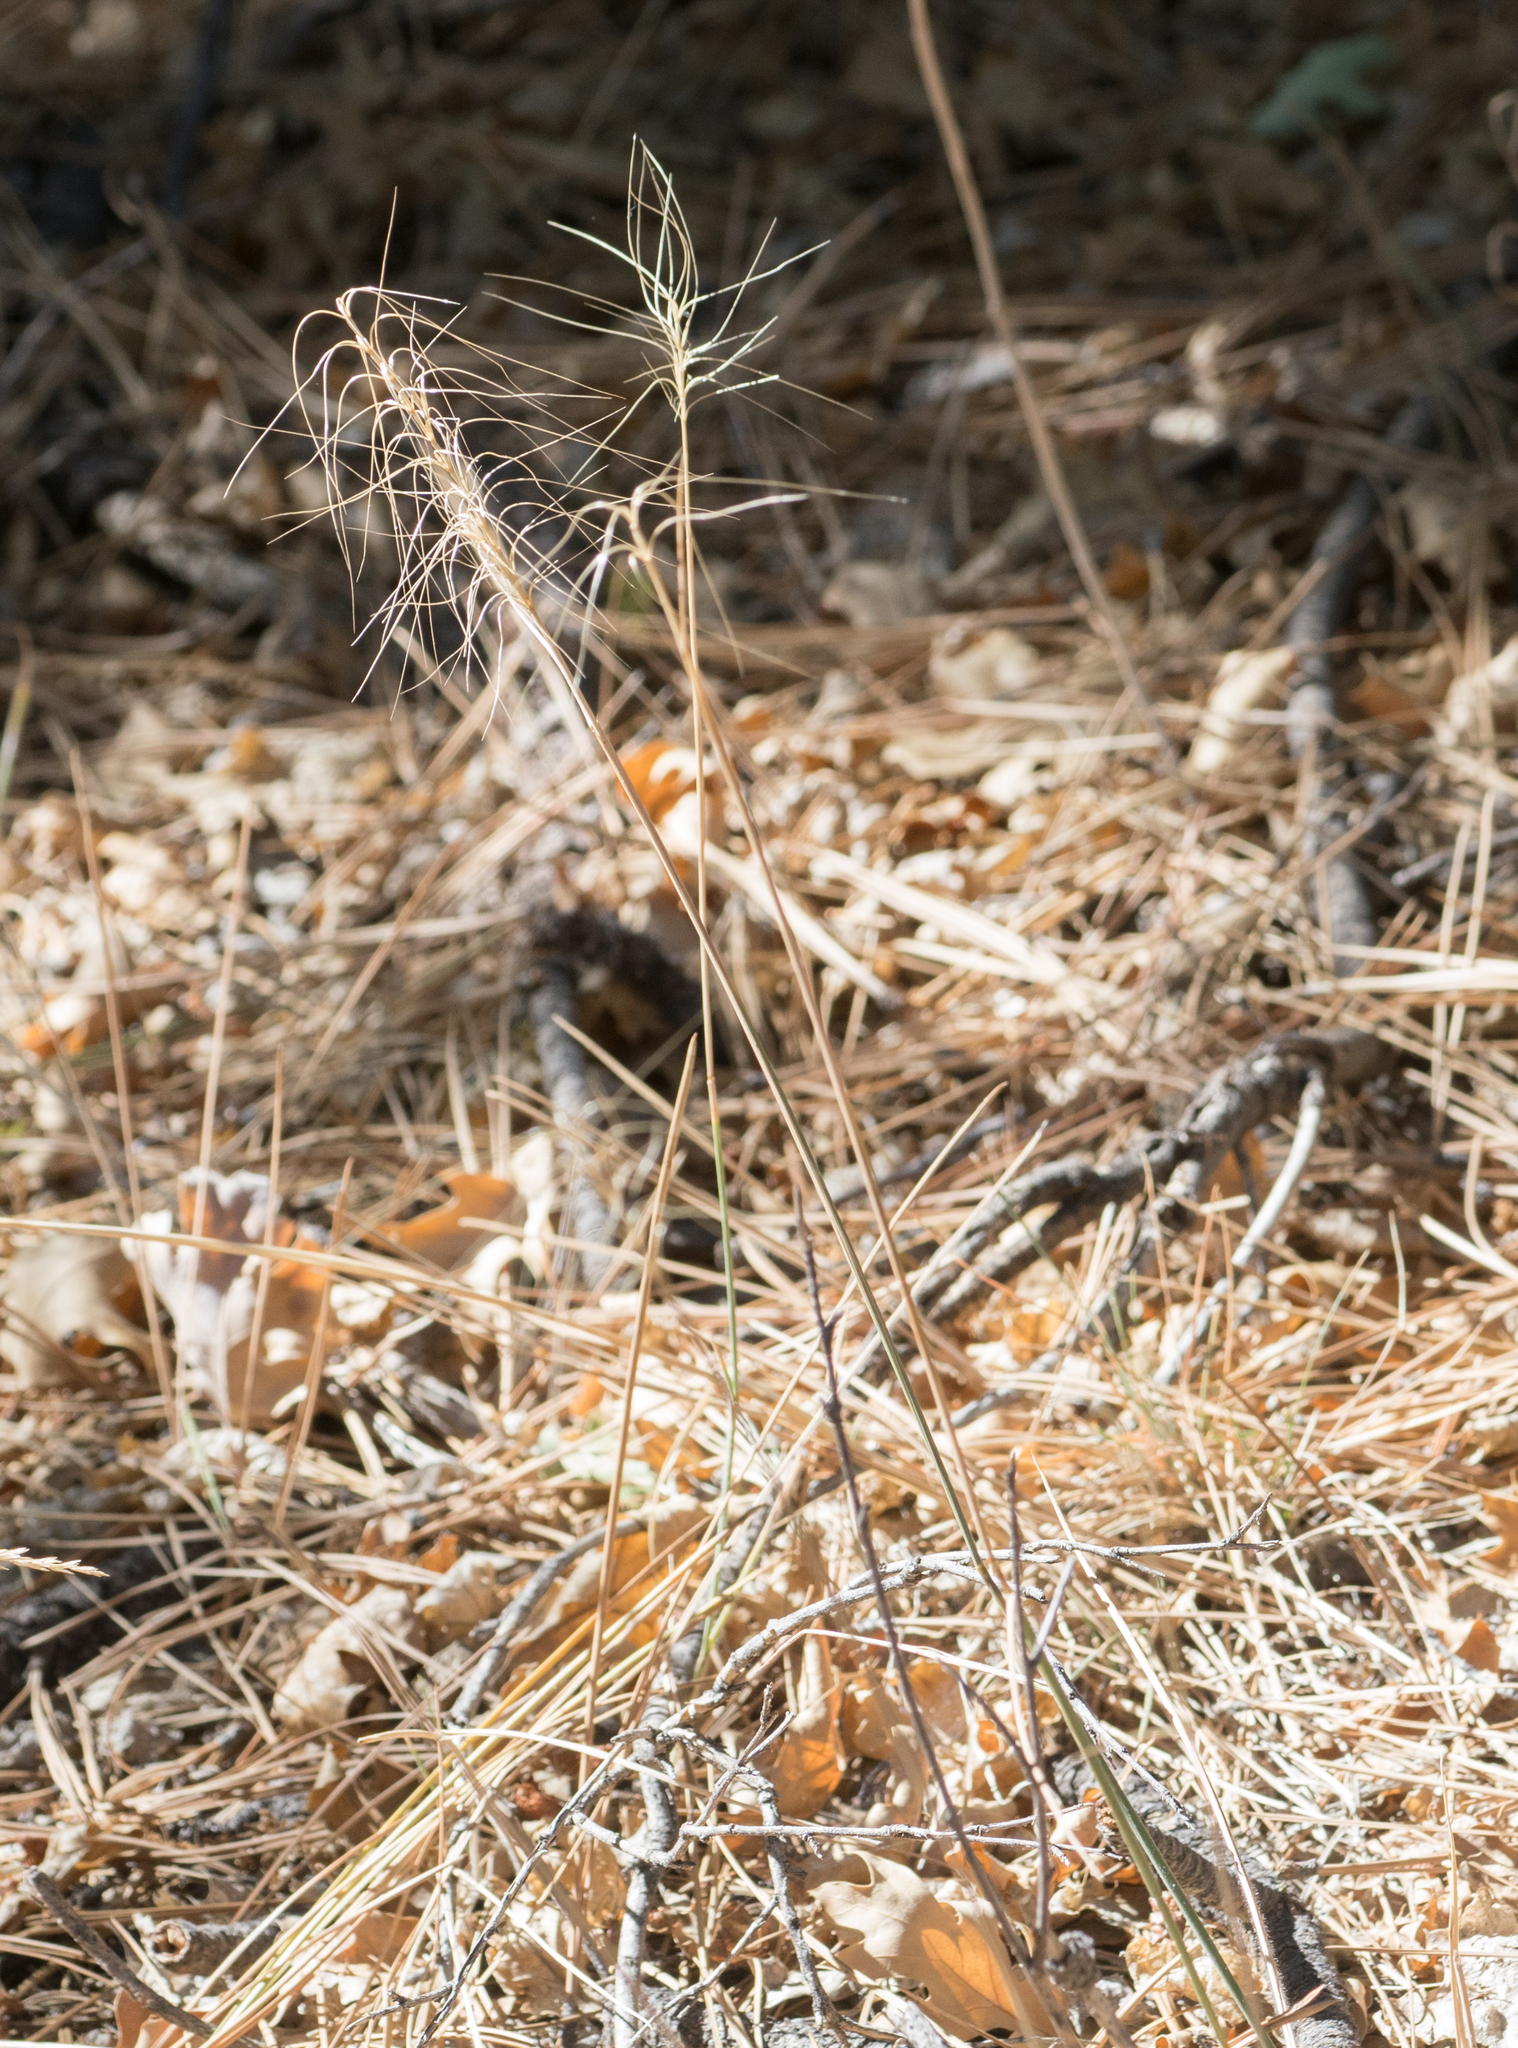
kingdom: Plantae
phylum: Tracheophyta
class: Liliopsida
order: Poales
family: Poaceae
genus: Elymus
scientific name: Elymus elymoides
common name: Bottlebrush squirreltail
